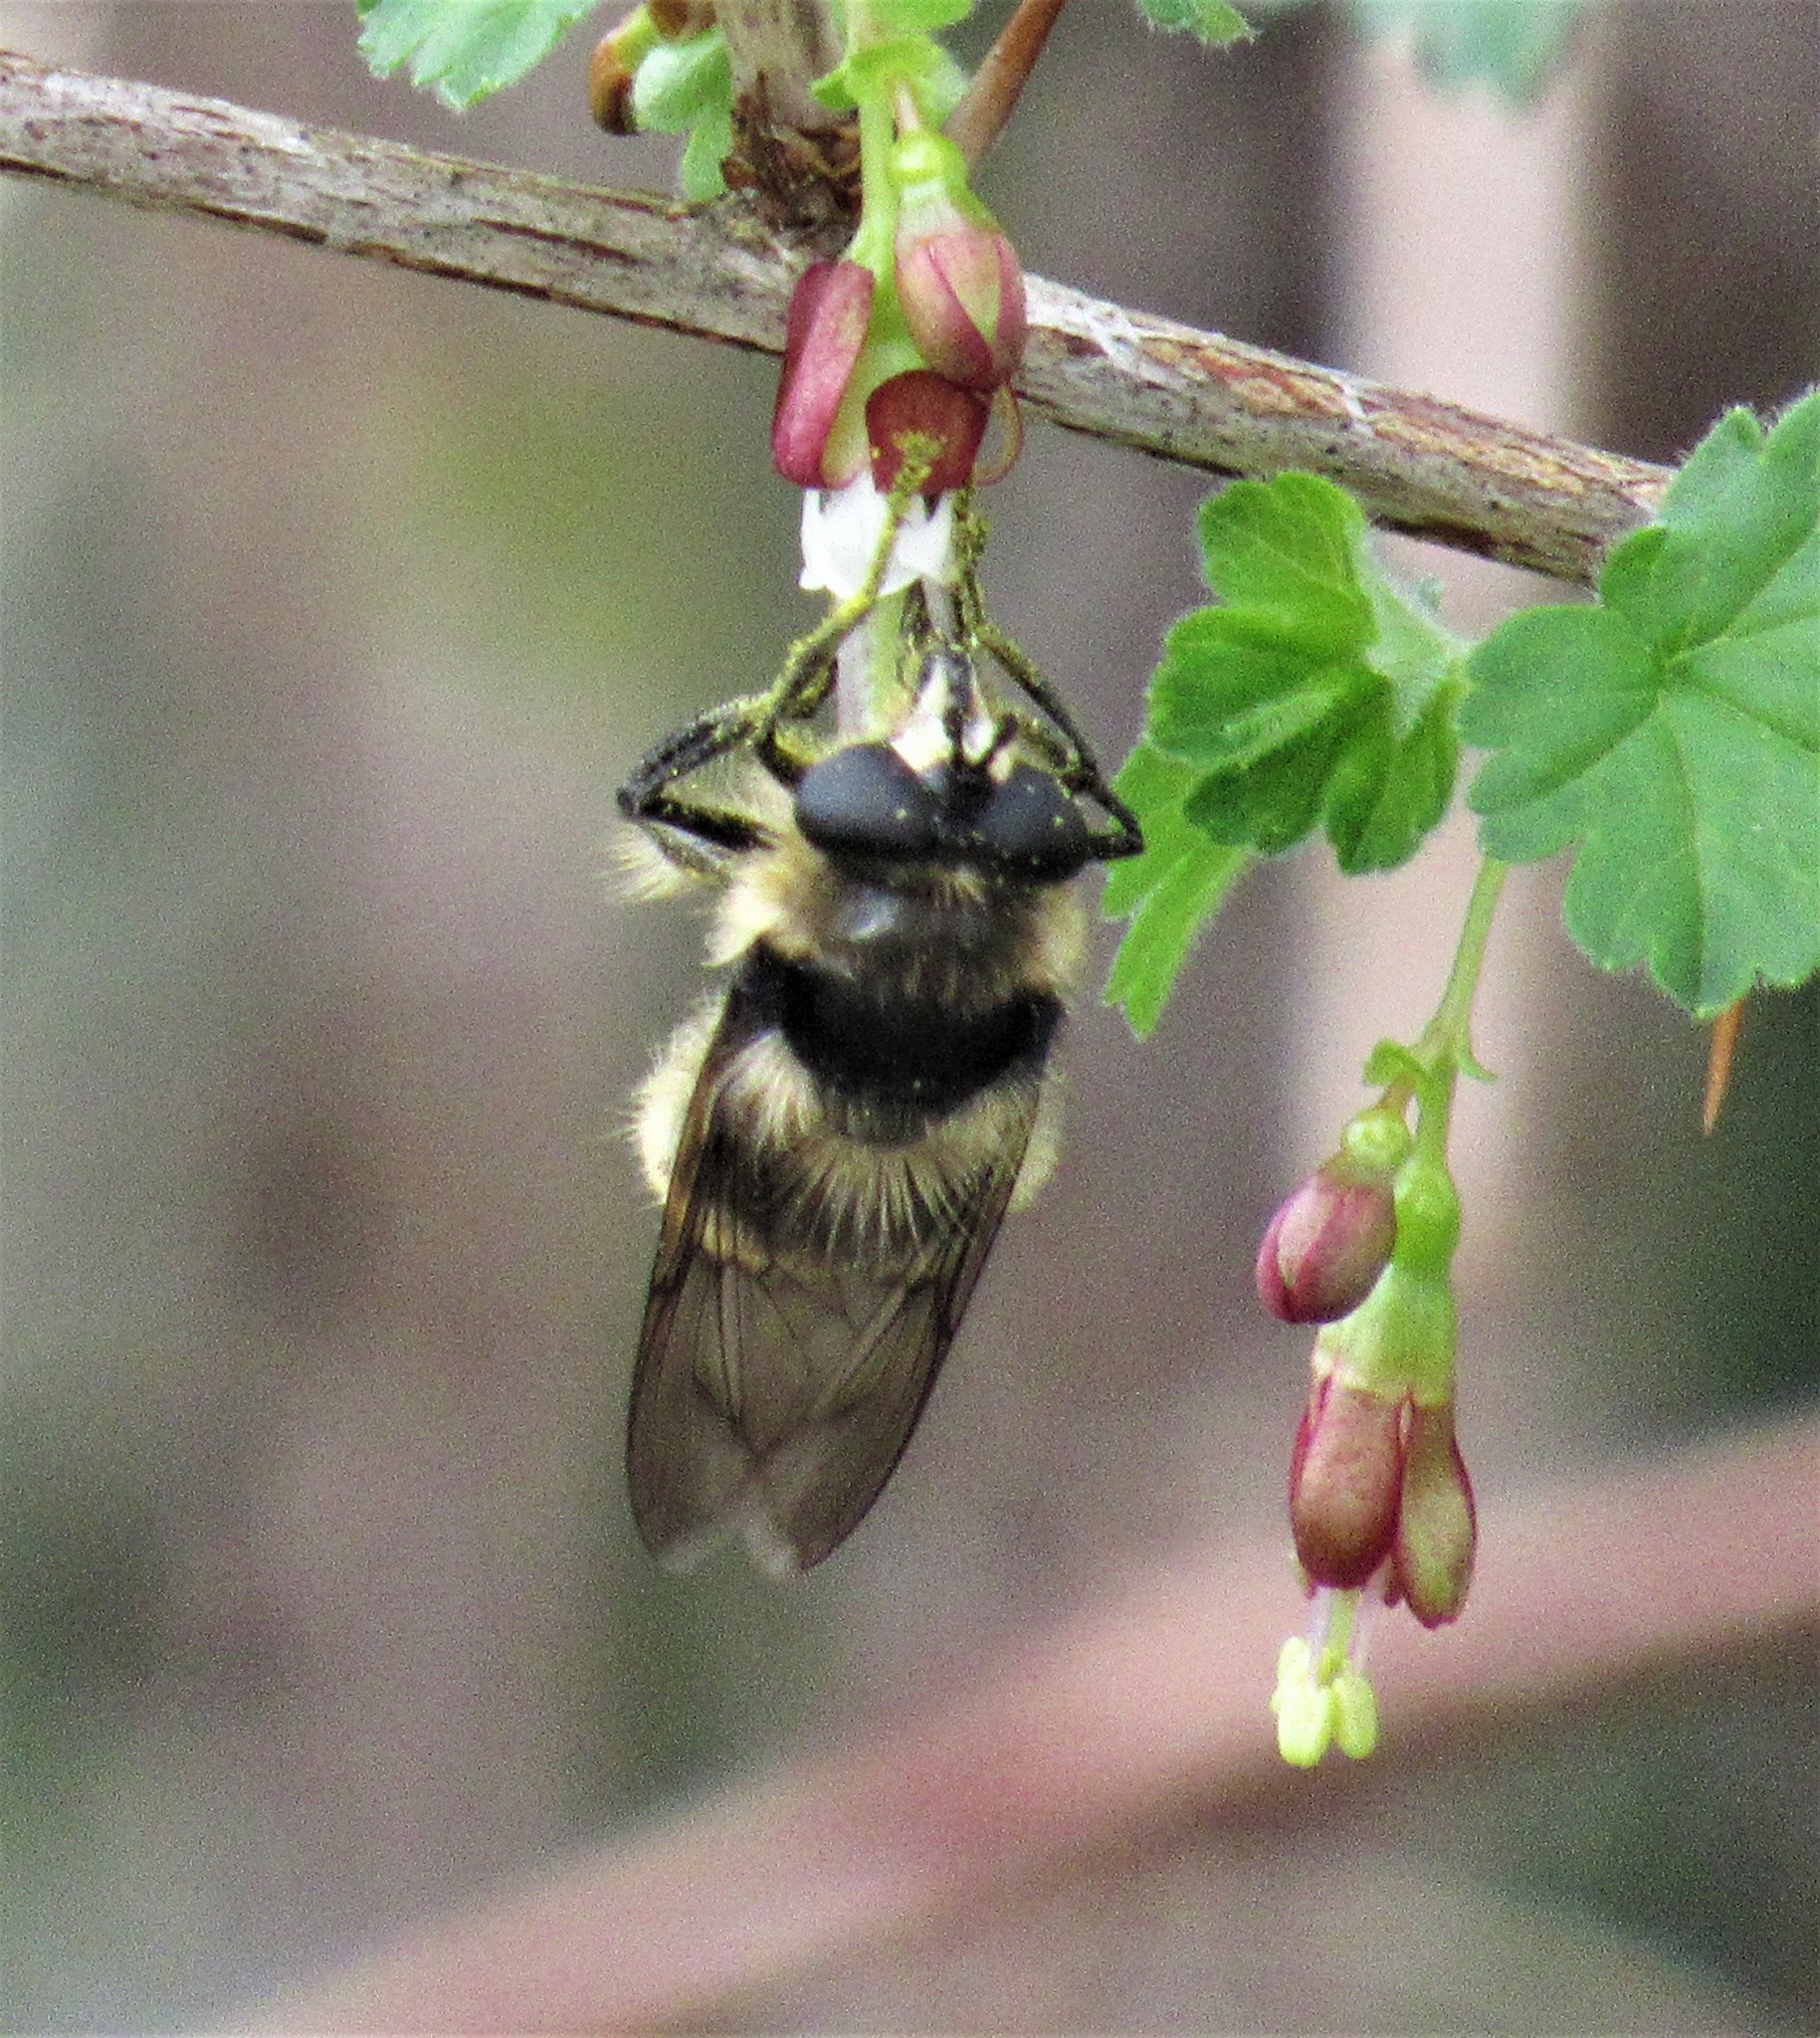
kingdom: Animalia
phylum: Arthropoda
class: Insecta
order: Diptera
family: Syrphidae
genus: Criorhina
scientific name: Criorhina nigripes
